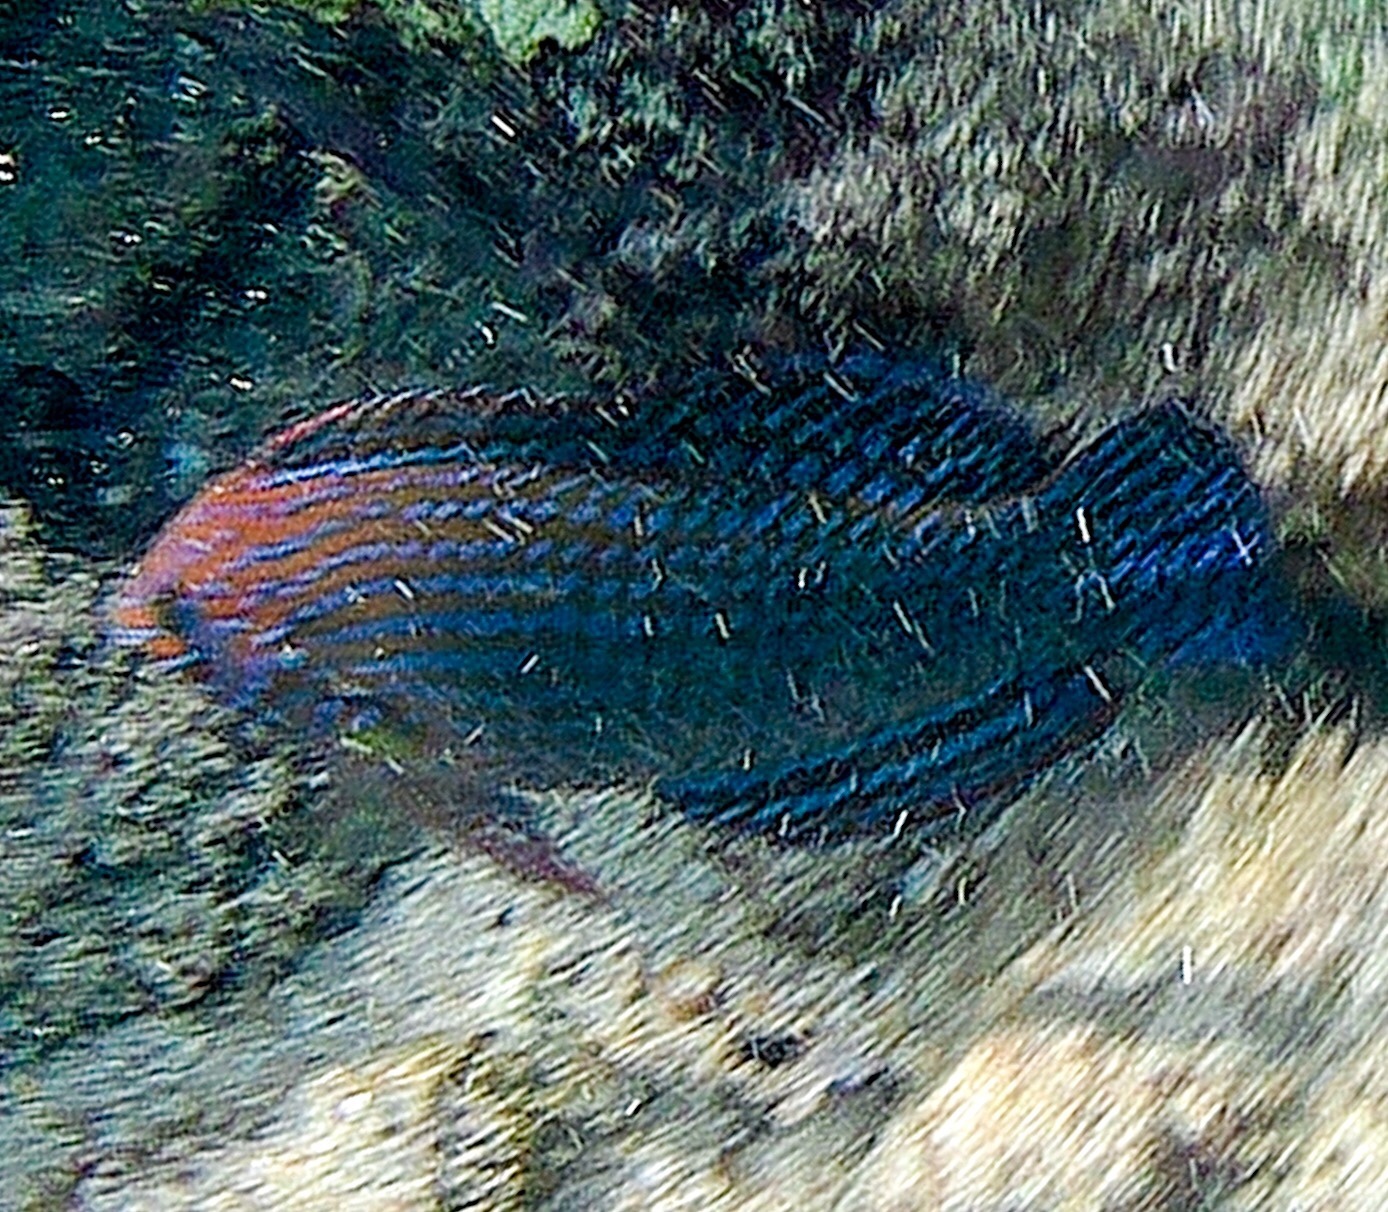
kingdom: Animalia
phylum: Chordata
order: Perciformes
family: Labridae
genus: Macropharyngodon
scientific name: Macropharyngodon geoffroy
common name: Shortnose wrasse
